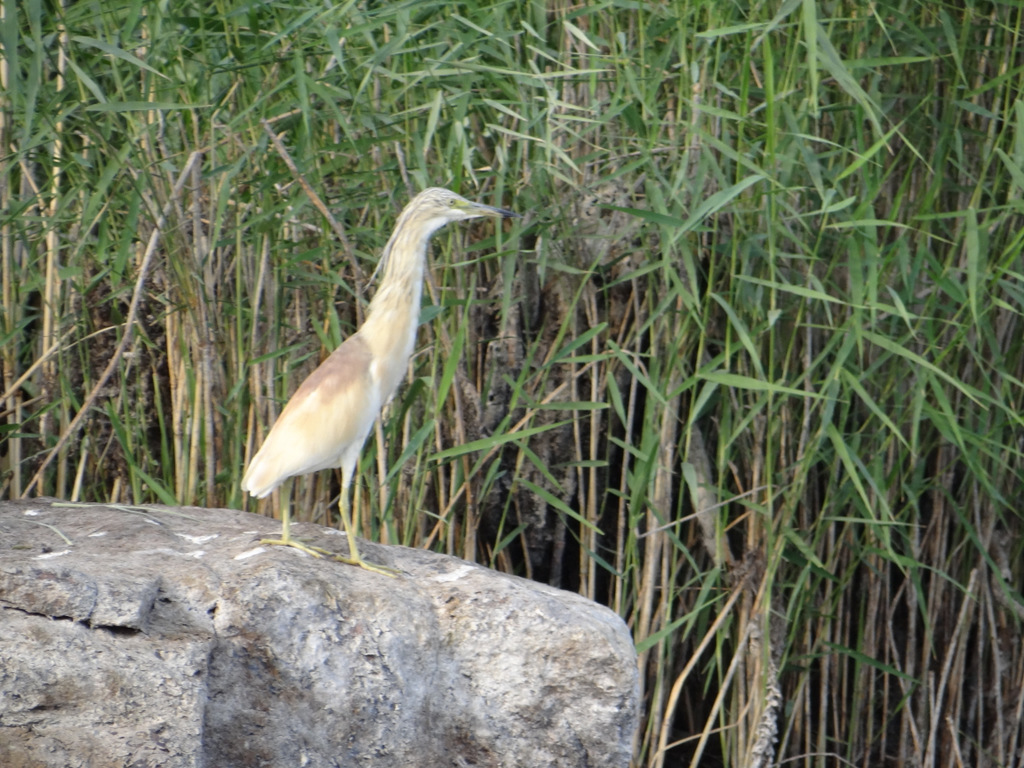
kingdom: Animalia
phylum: Chordata
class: Aves
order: Pelecaniformes
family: Ardeidae
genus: Ardeola
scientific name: Ardeola ralloides
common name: Squacco heron
